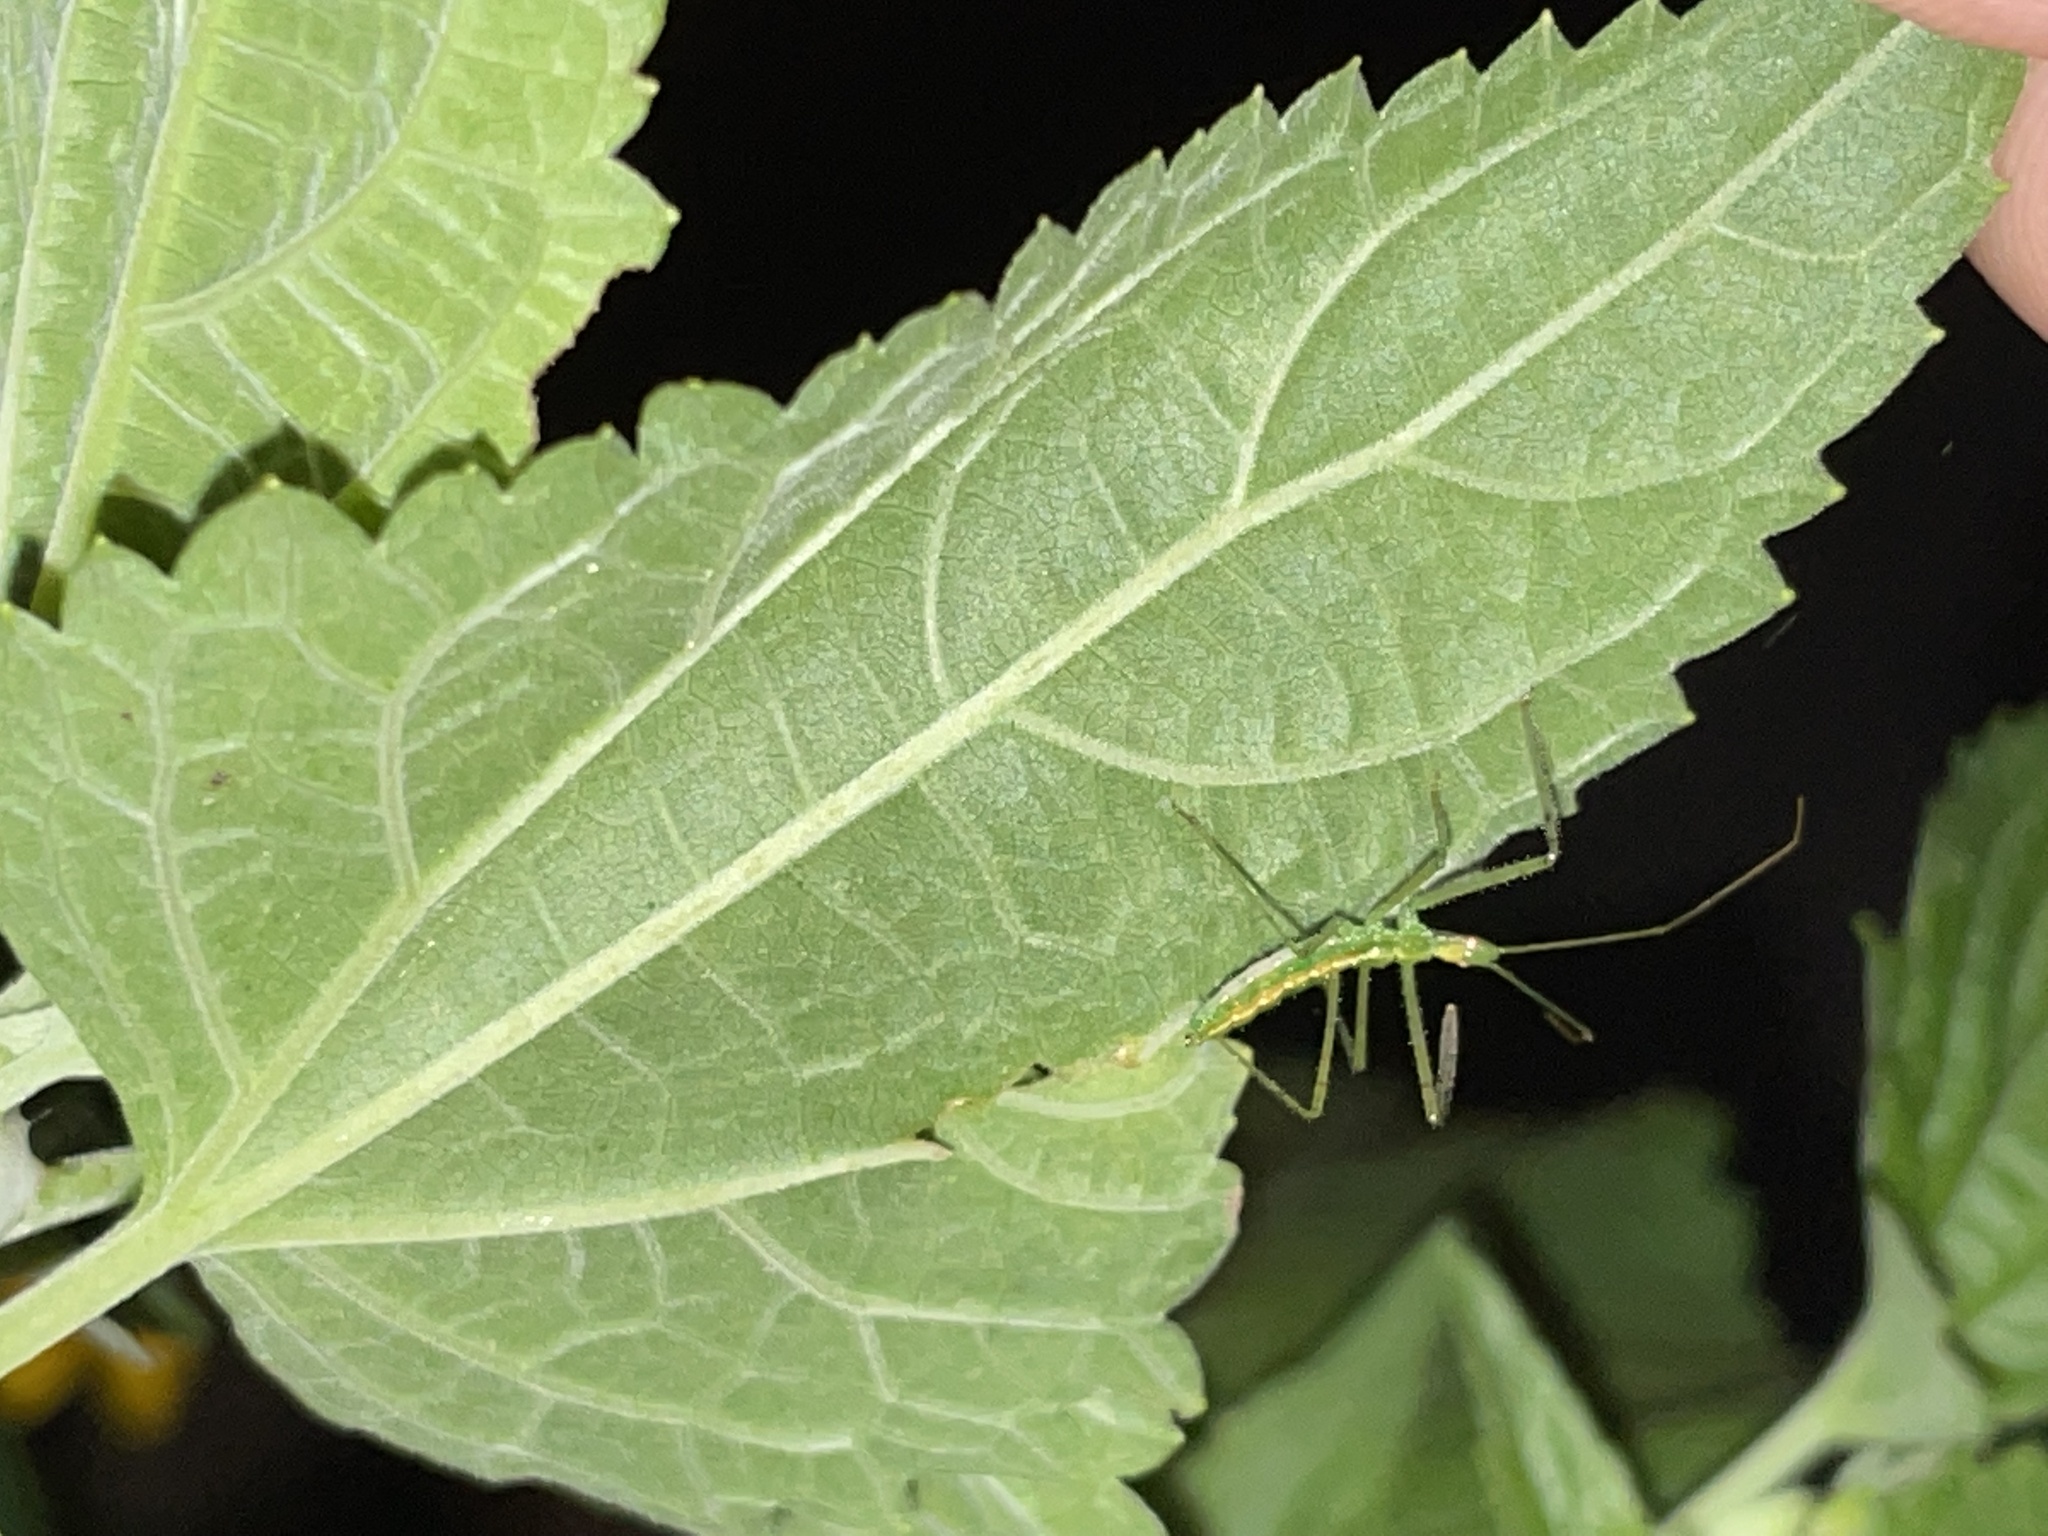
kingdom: Animalia
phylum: Arthropoda
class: Insecta
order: Hemiptera
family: Reduviidae
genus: Zelus
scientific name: Zelus luridus
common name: Pale green assassin bug
